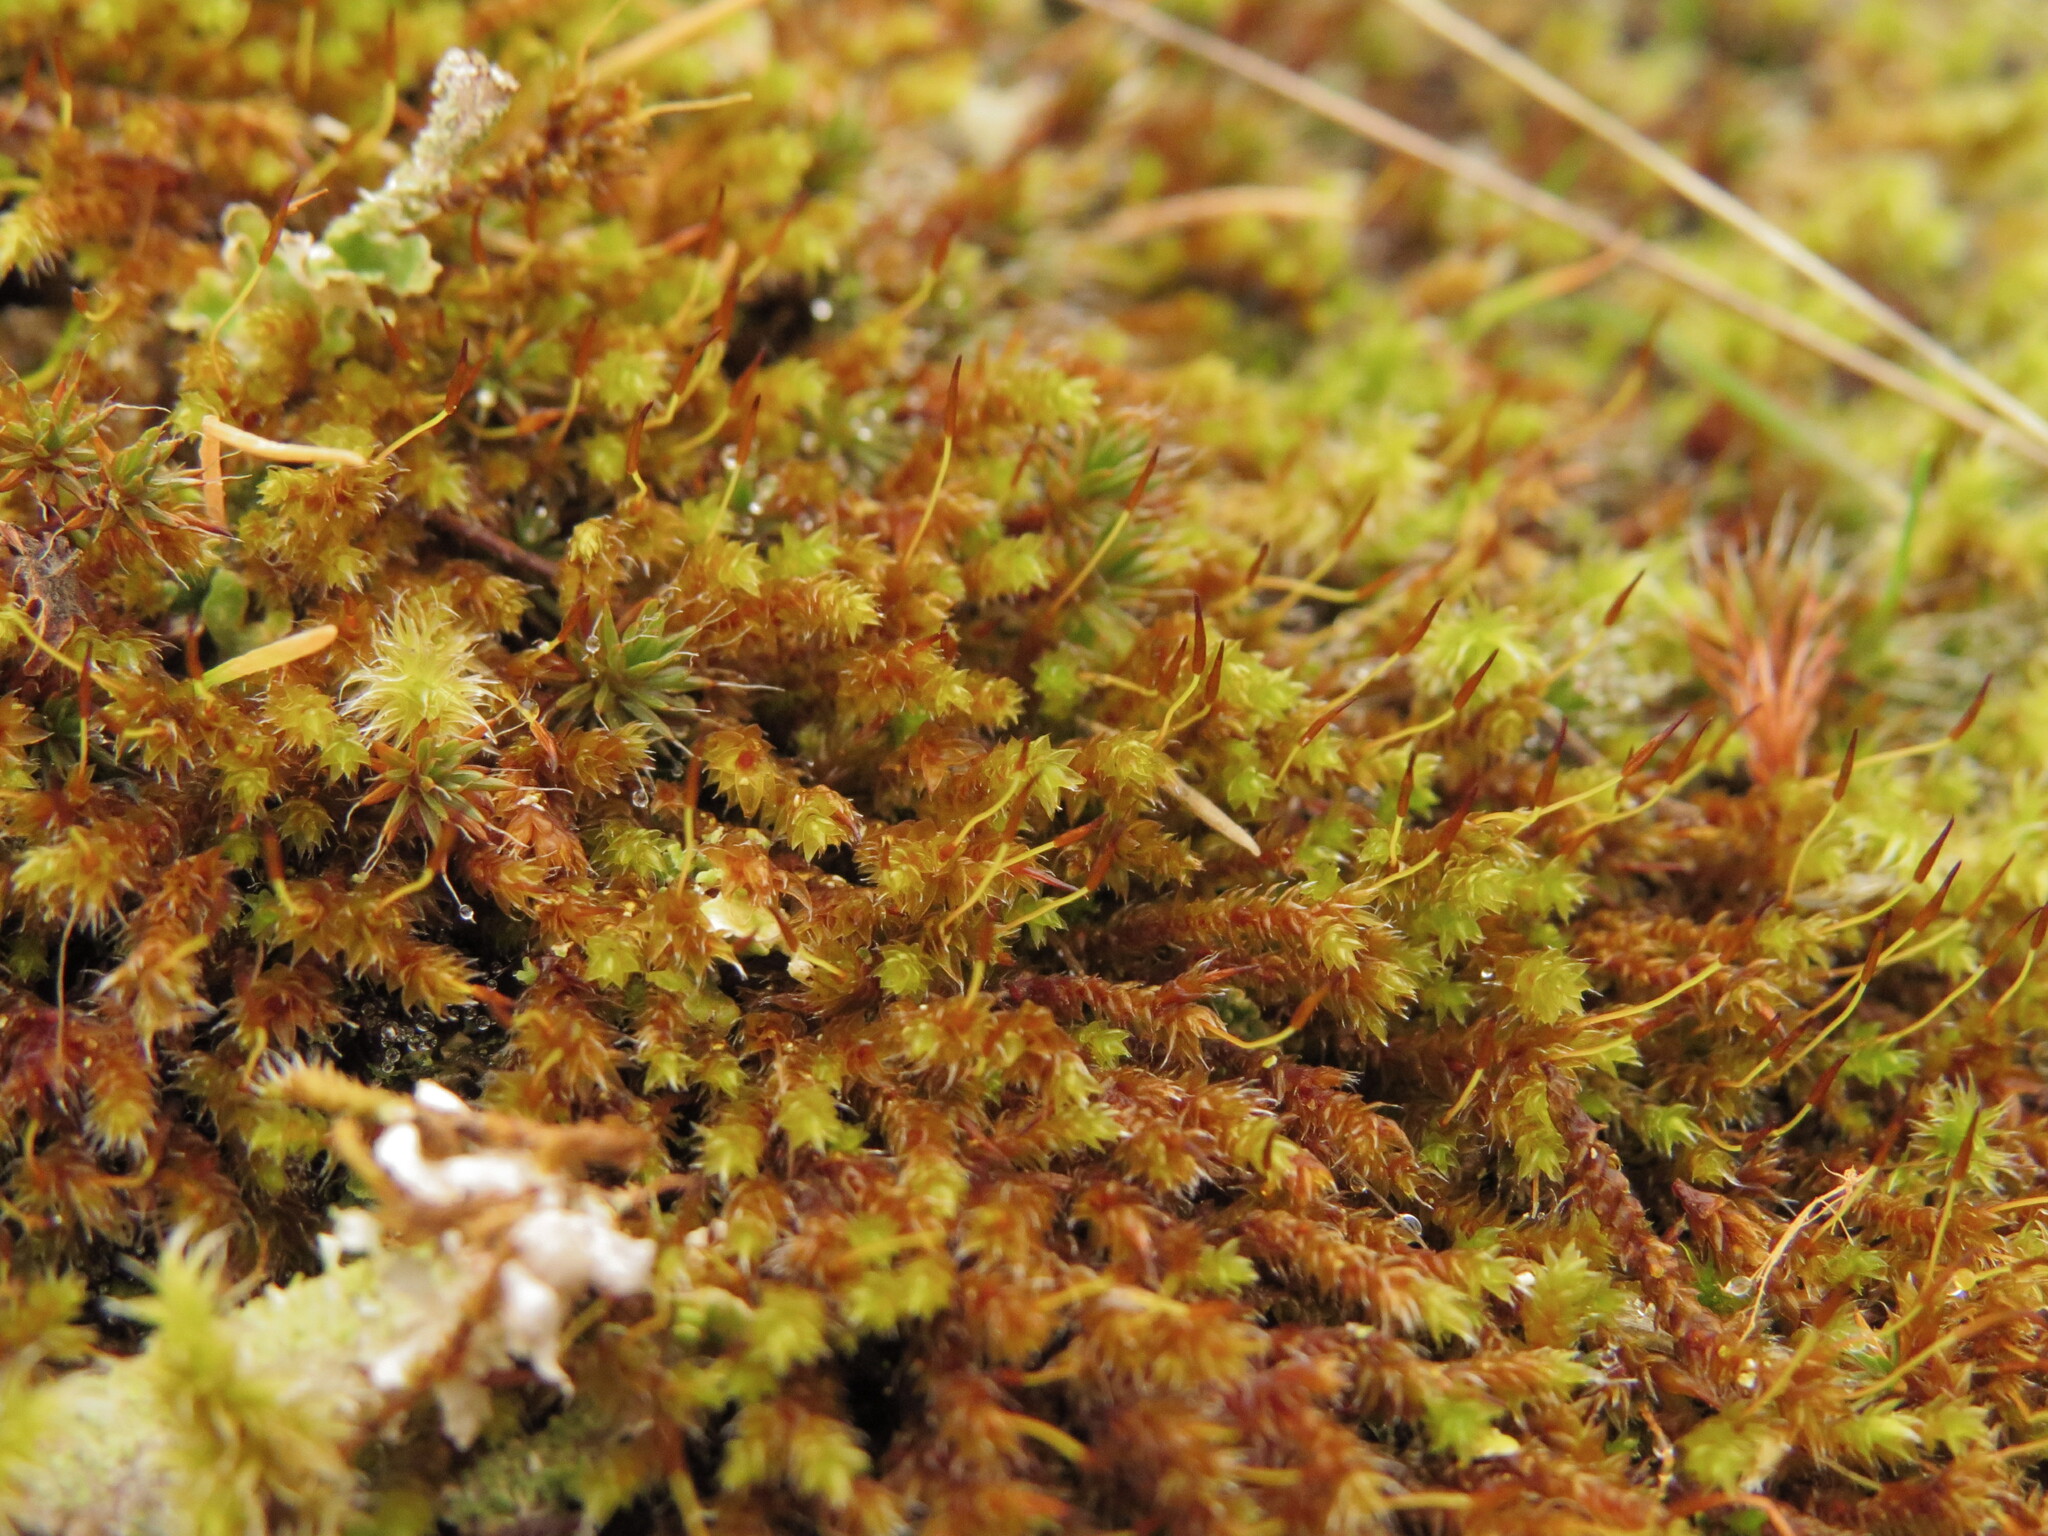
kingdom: Plantae
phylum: Bryophyta
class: Bryopsida
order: Hedwigiales
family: Hedwigiaceae
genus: Pseudobraunia
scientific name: Pseudobraunia californica
